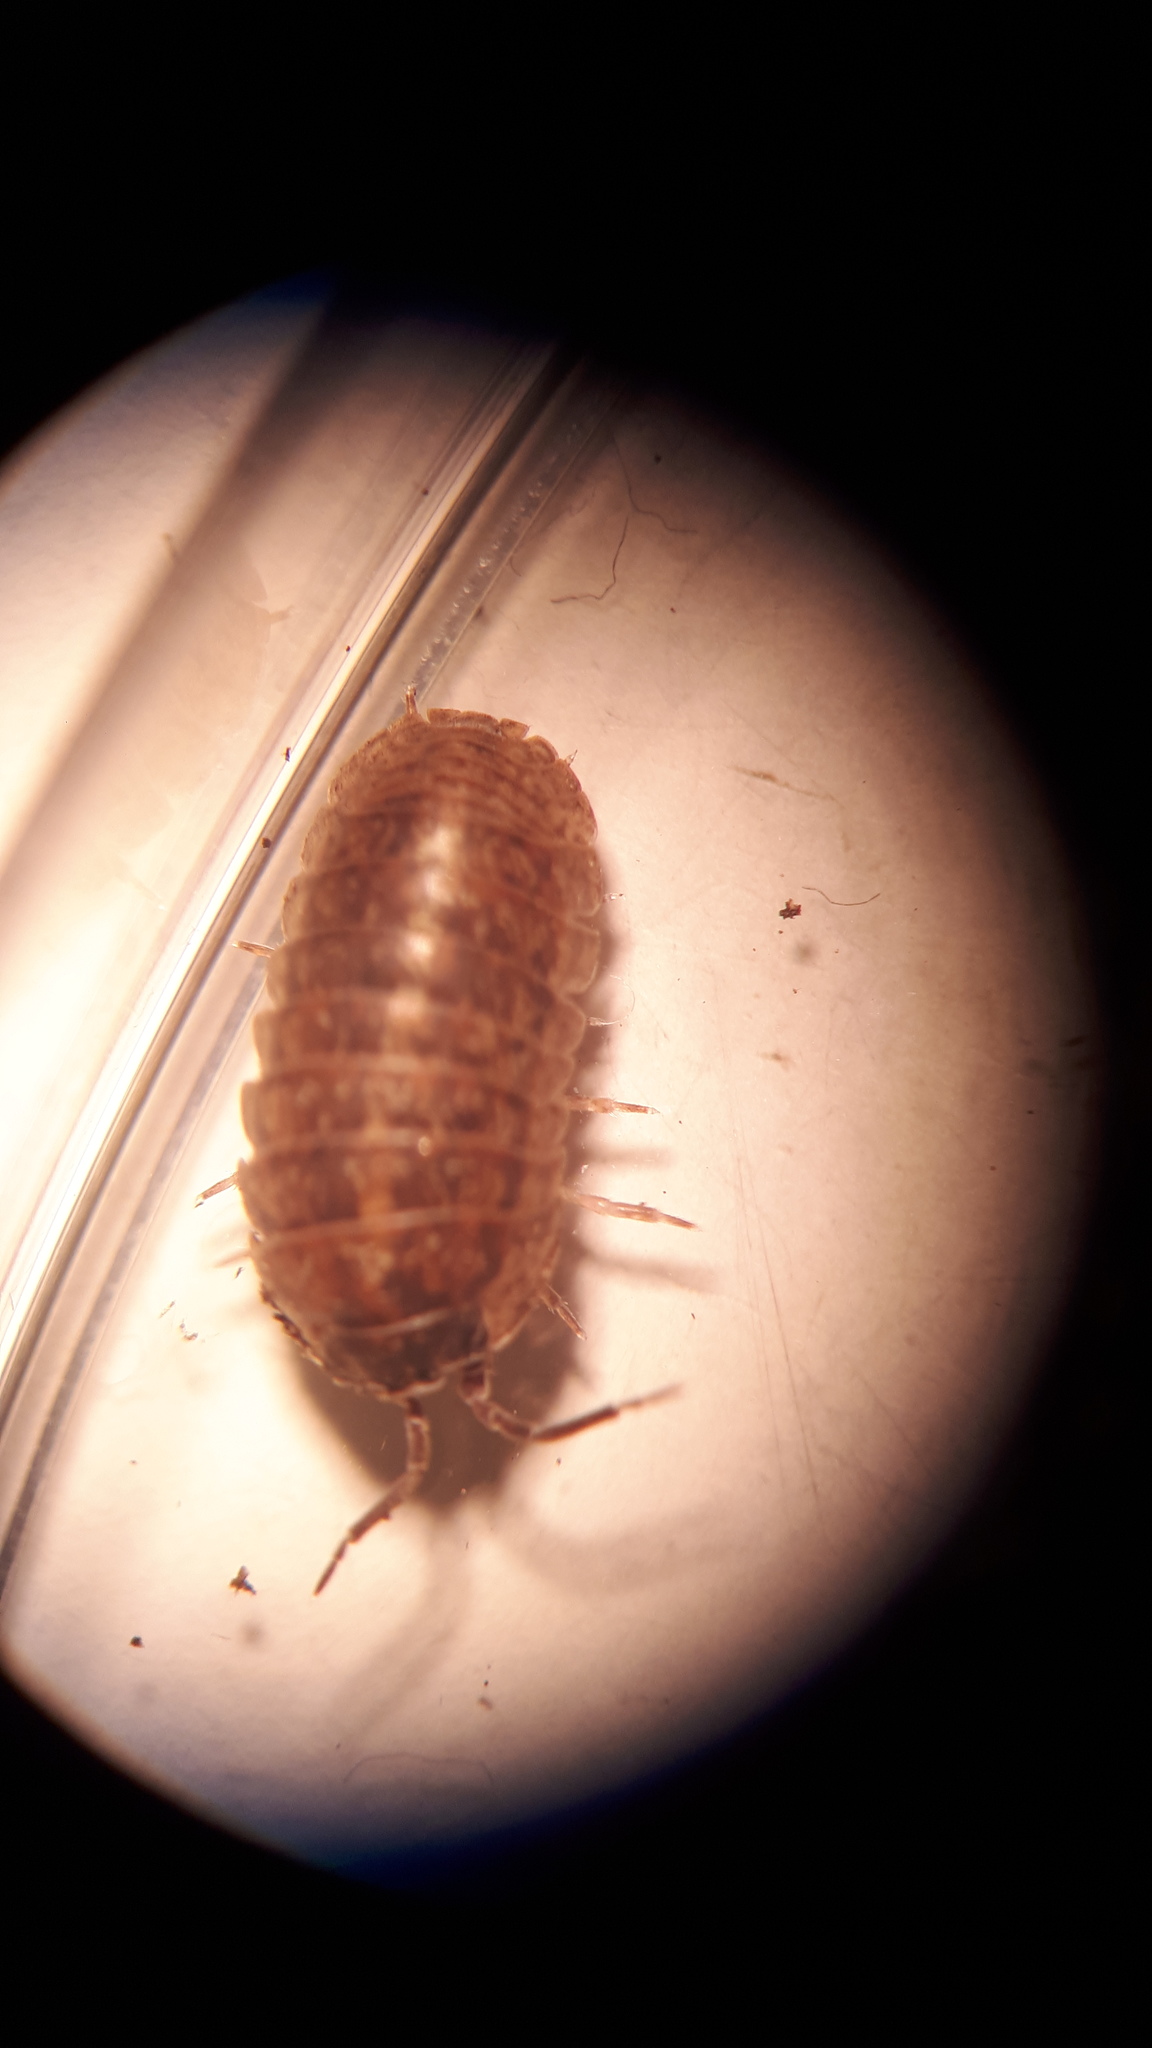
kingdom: Animalia
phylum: Arthropoda
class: Malacostraca
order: Isopoda
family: Armadillidiidae
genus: Armadillidium
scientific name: Armadillidium opacum
